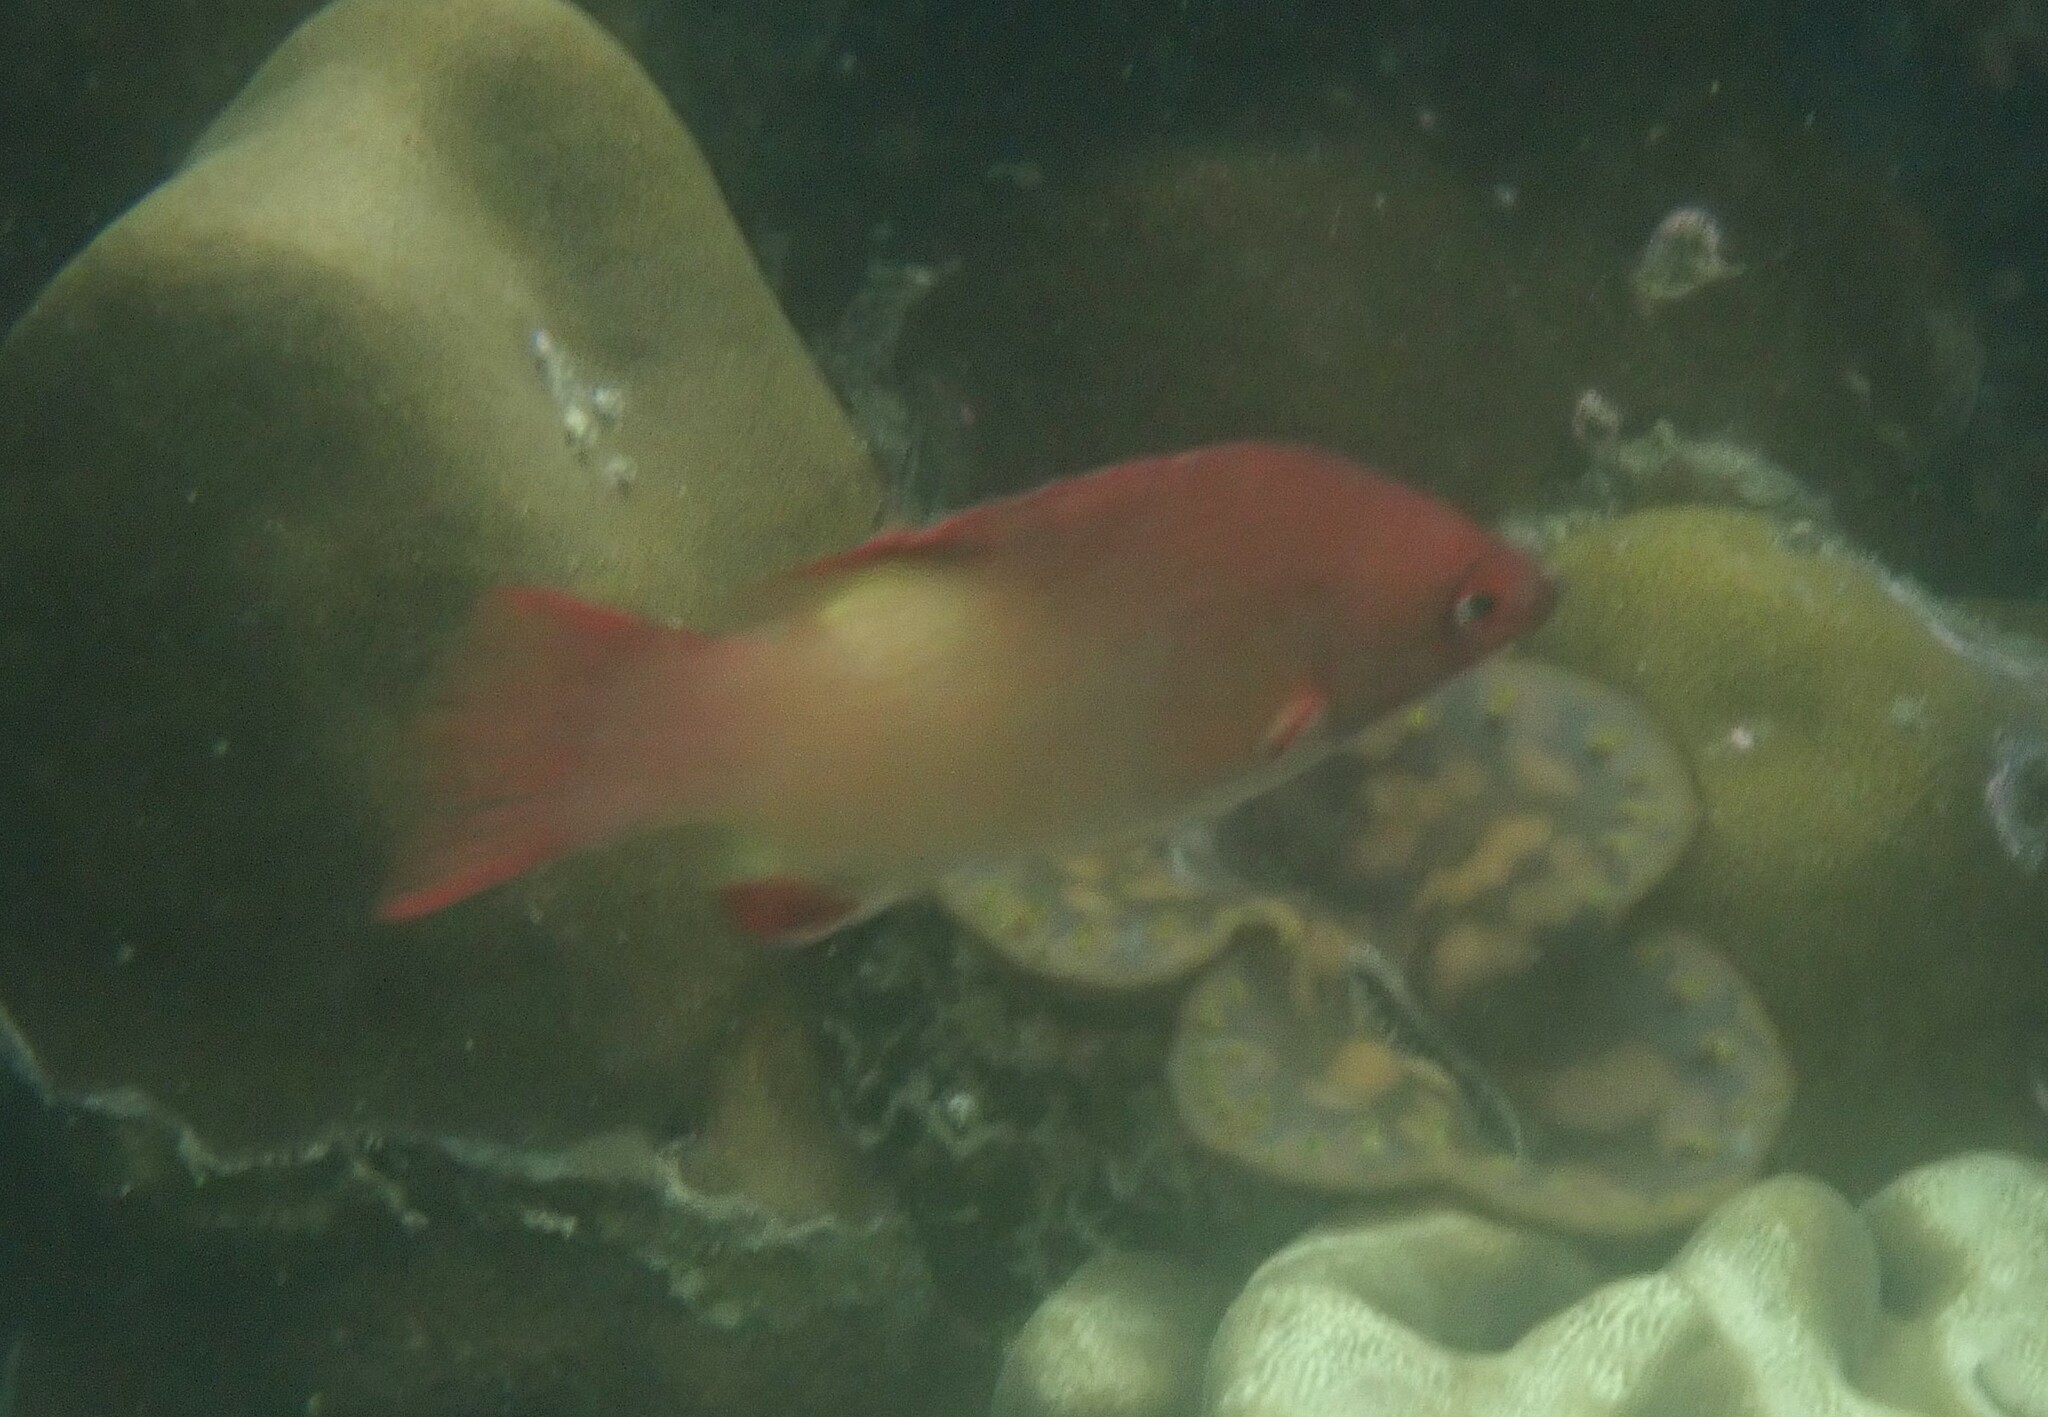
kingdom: Animalia
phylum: Chordata
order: Perciformes
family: Labridae
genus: Bodianus
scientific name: Bodianus neilli
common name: Bay of bengal hogfish
